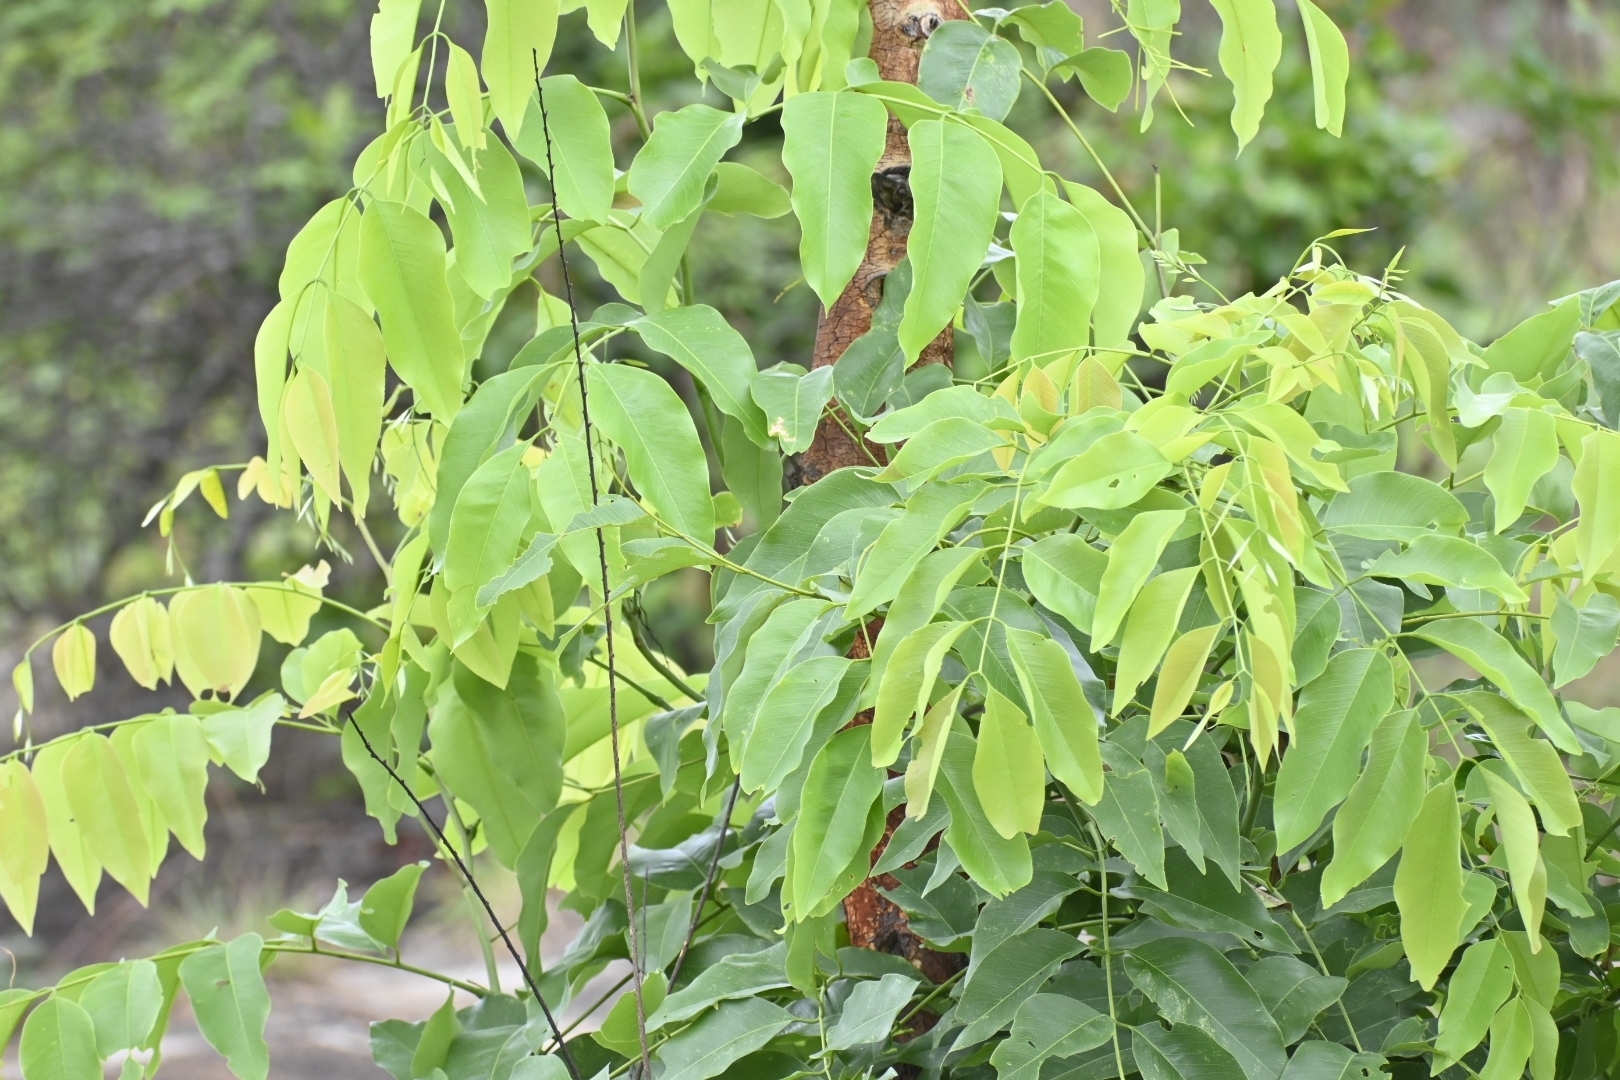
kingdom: Plantae
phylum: Tracheophyta
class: Magnoliopsida
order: Fabales
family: Fabaceae
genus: Cassia
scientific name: Cassia fistula
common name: Golden shower
